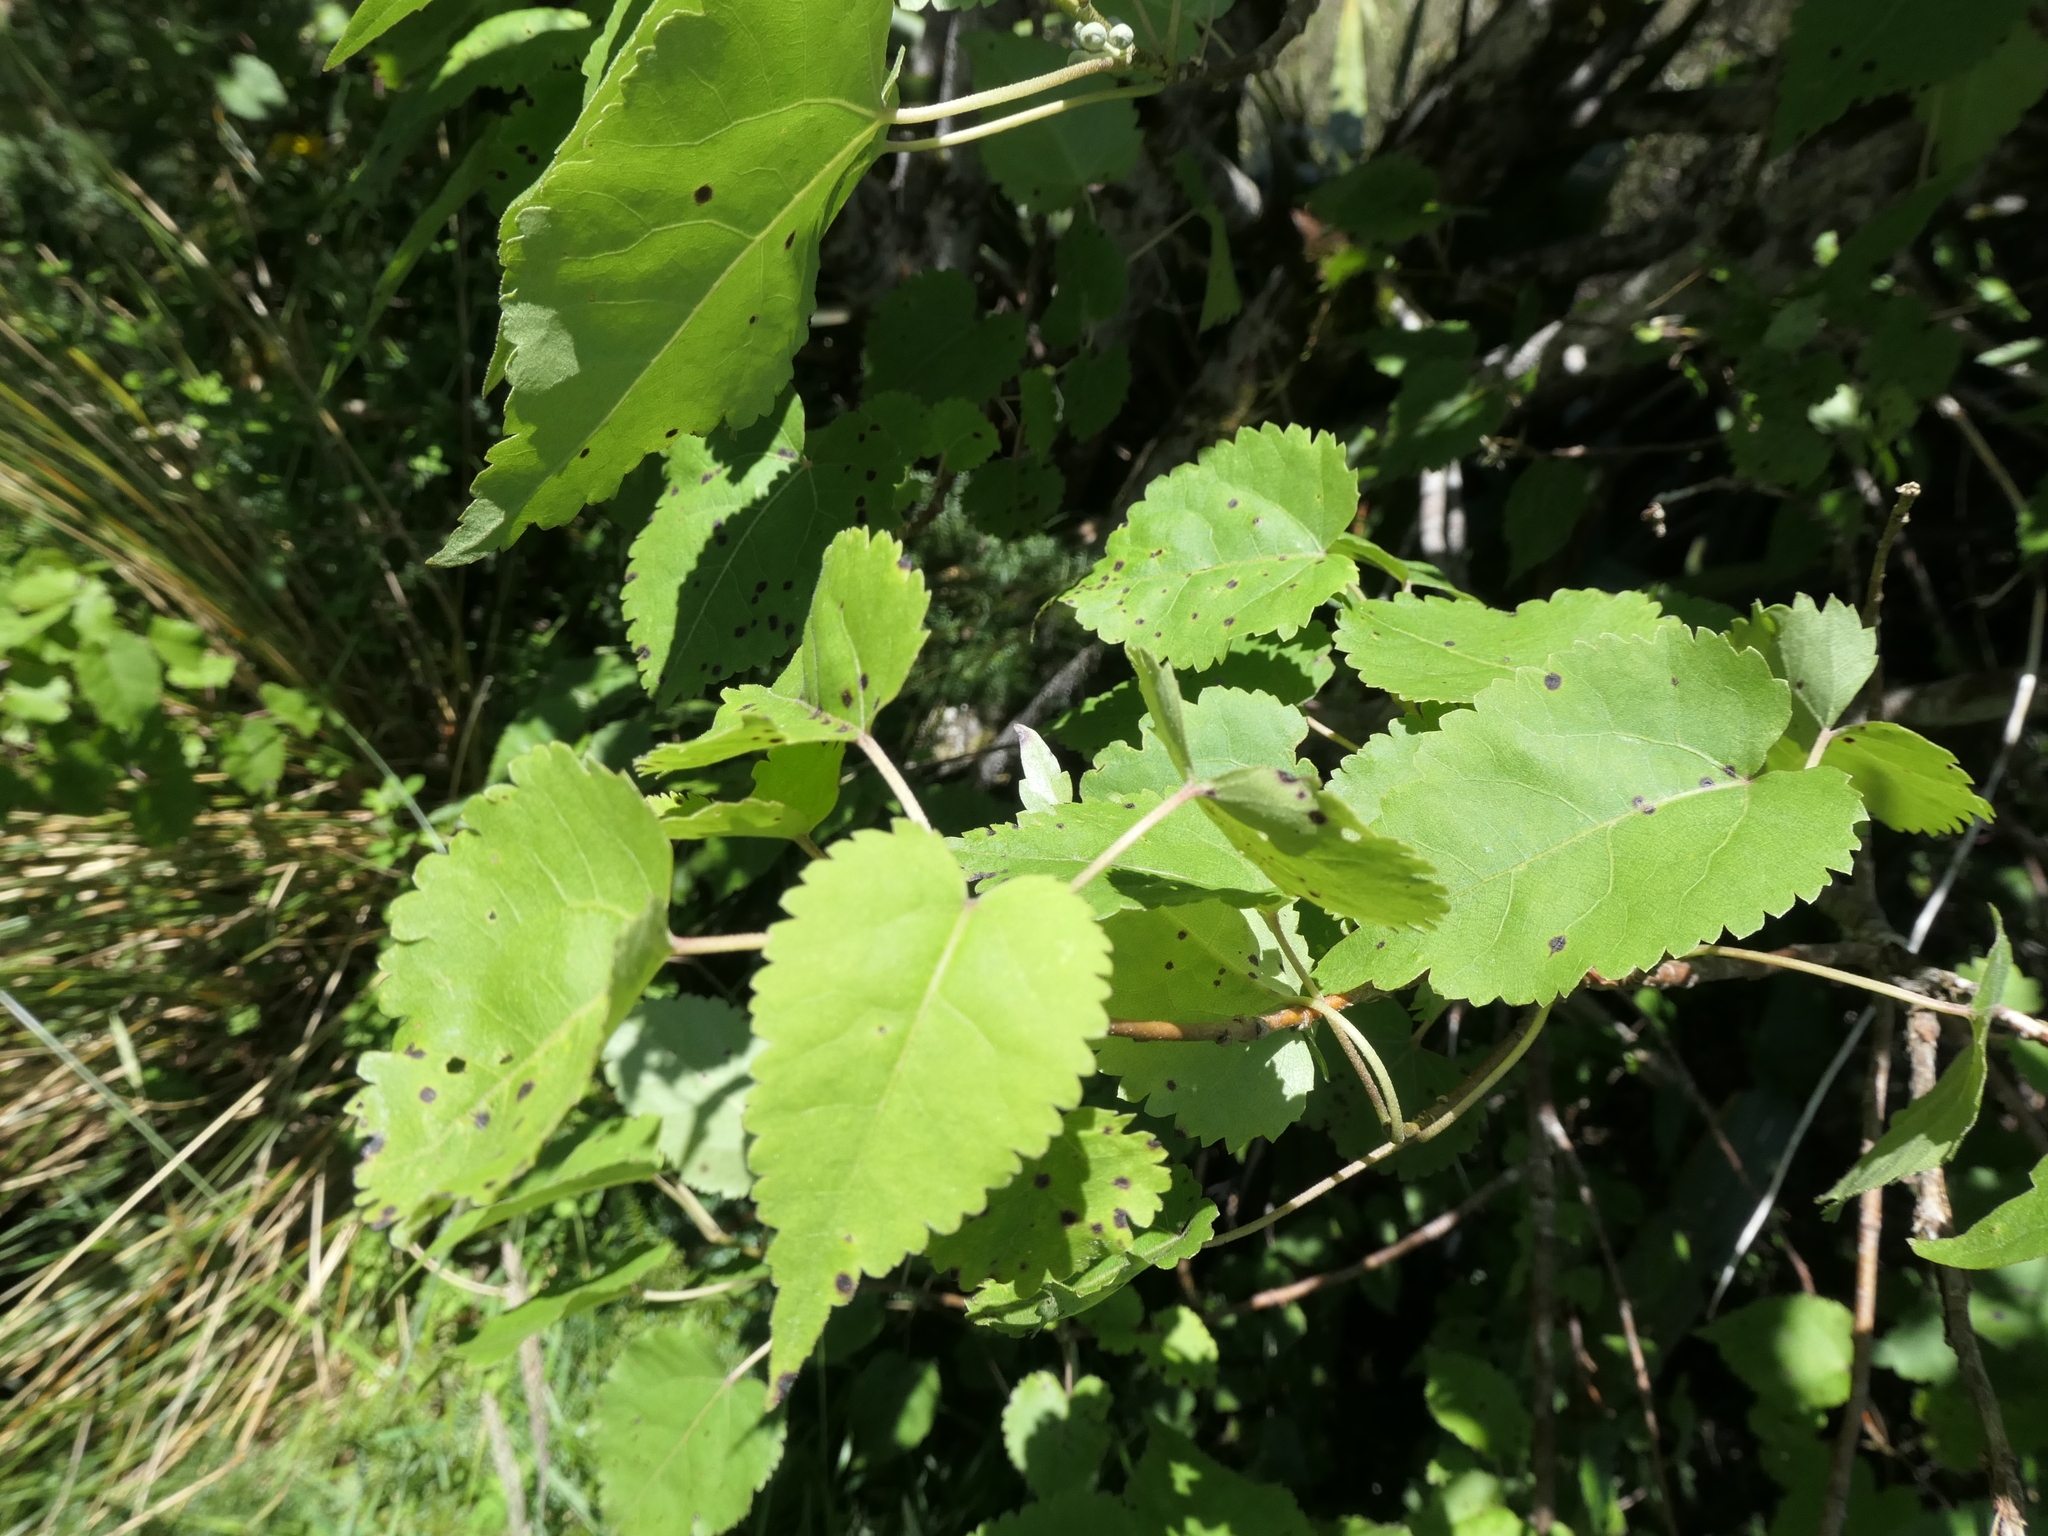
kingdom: Plantae
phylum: Tracheophyta
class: Magnoliopsida
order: Malvales
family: Malvaceae
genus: Hoheria
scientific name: Hoheria glabrata
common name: Mountain-ribbon
